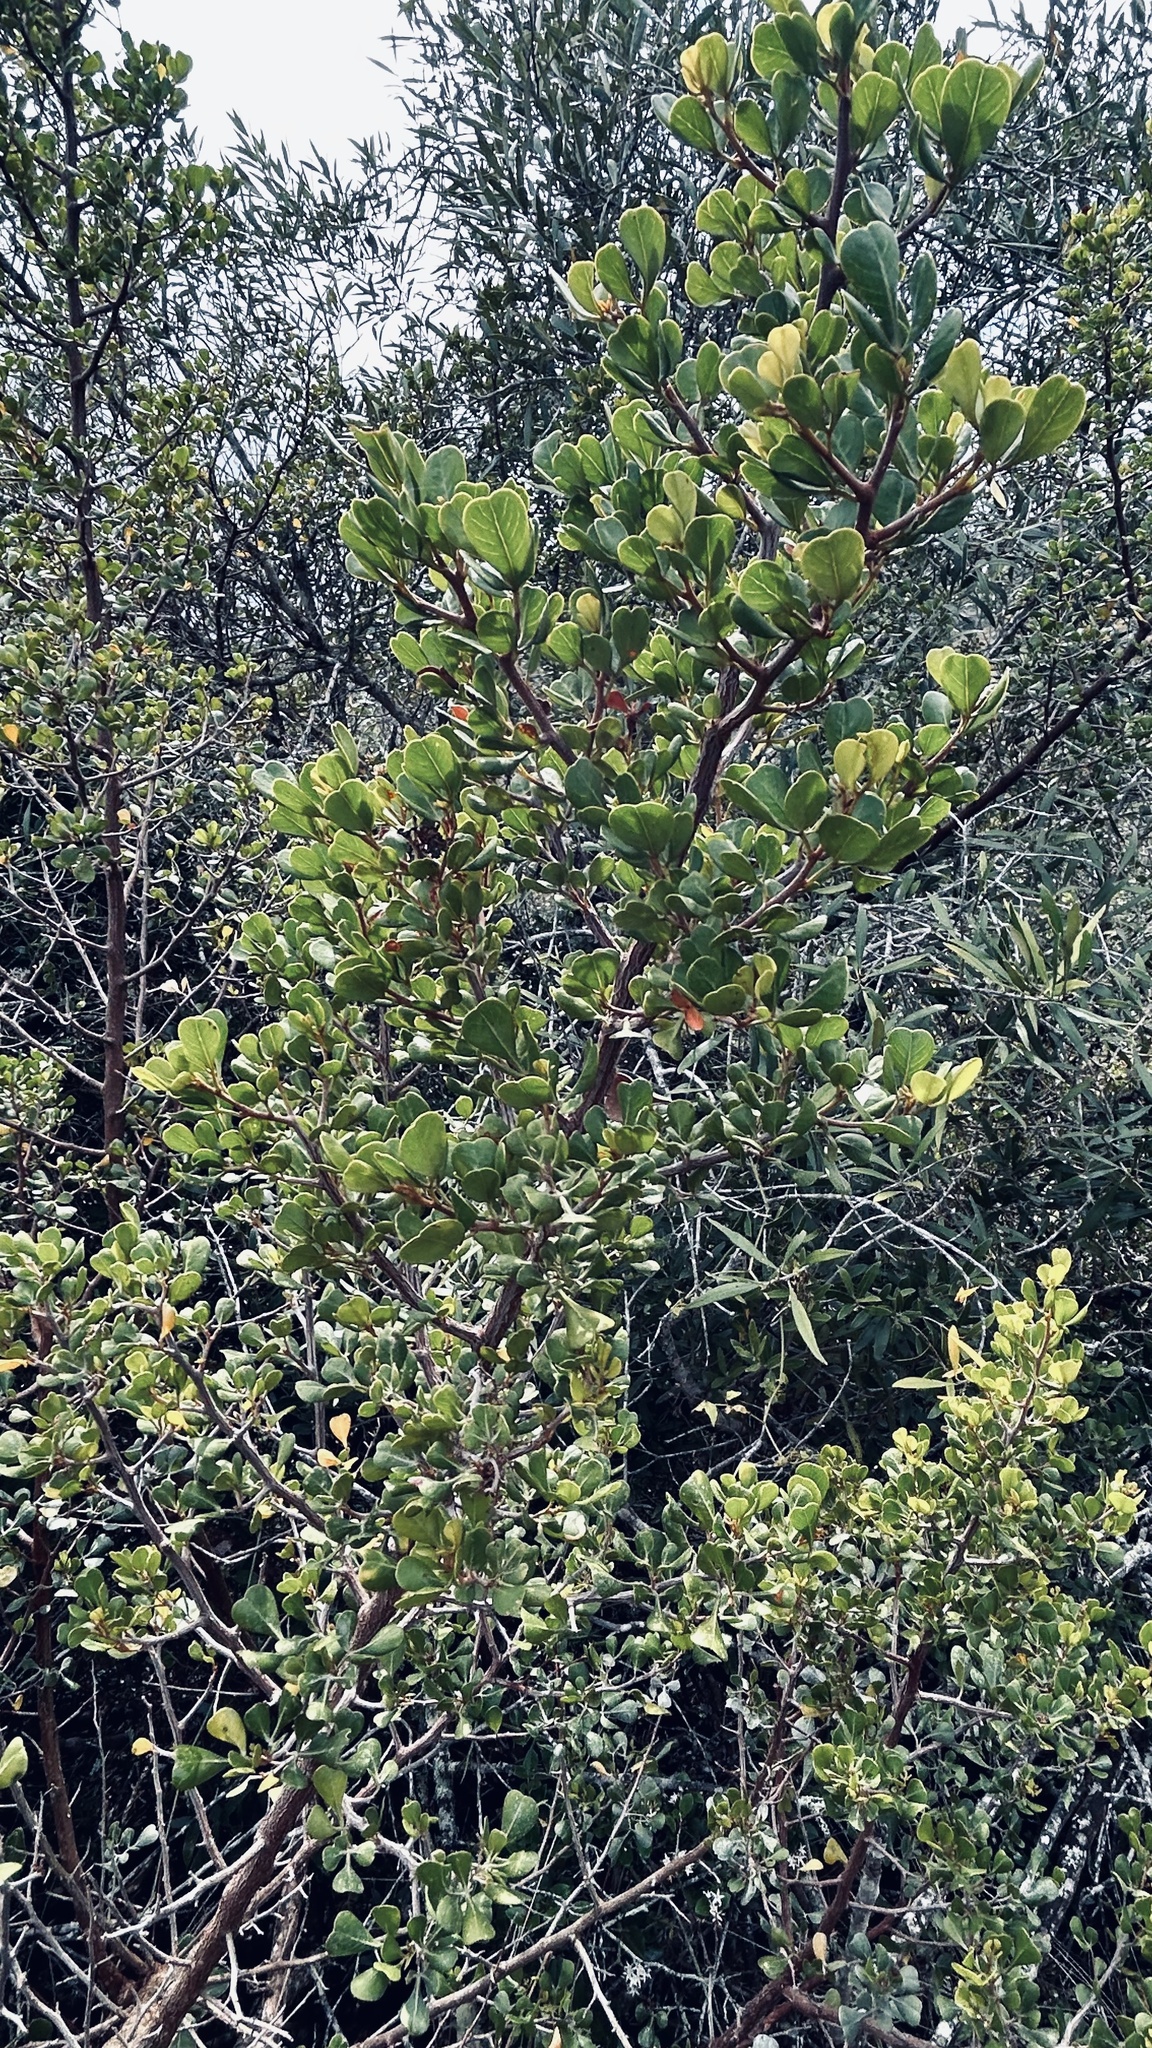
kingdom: Plantae
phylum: Tracheophyta
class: Magnoliopsida
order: Sapindales
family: Anacardiaceae
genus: Searsia
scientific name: Searsia glauca
